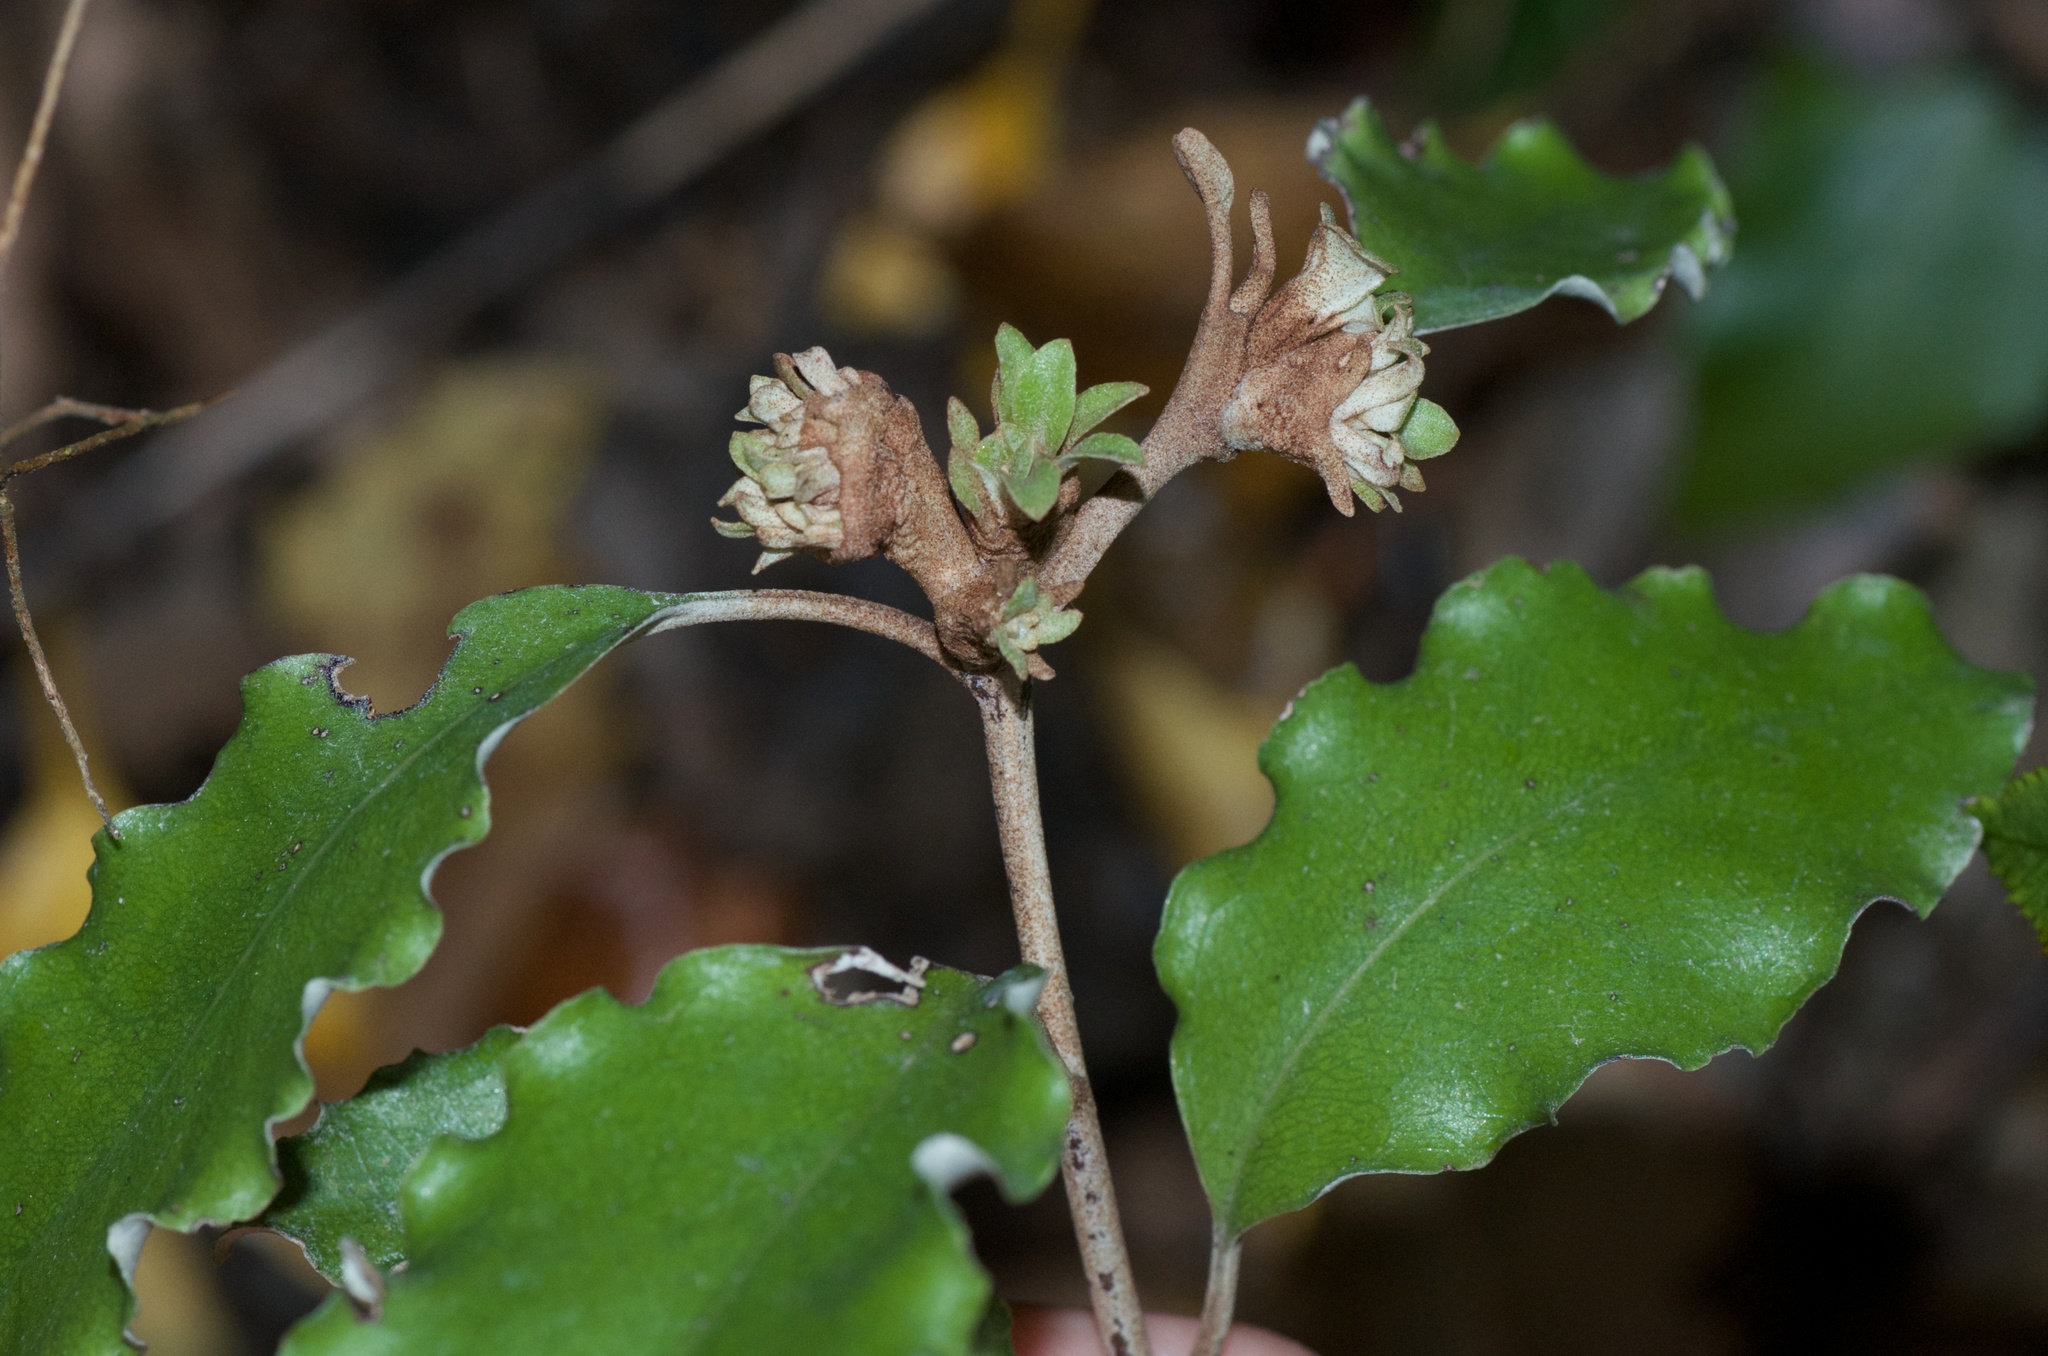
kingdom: Animalia
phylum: Arthropoda
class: Insecta
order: Diptera
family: Cecidomyiidae
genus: Oligotrophus
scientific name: Oligotrophus
